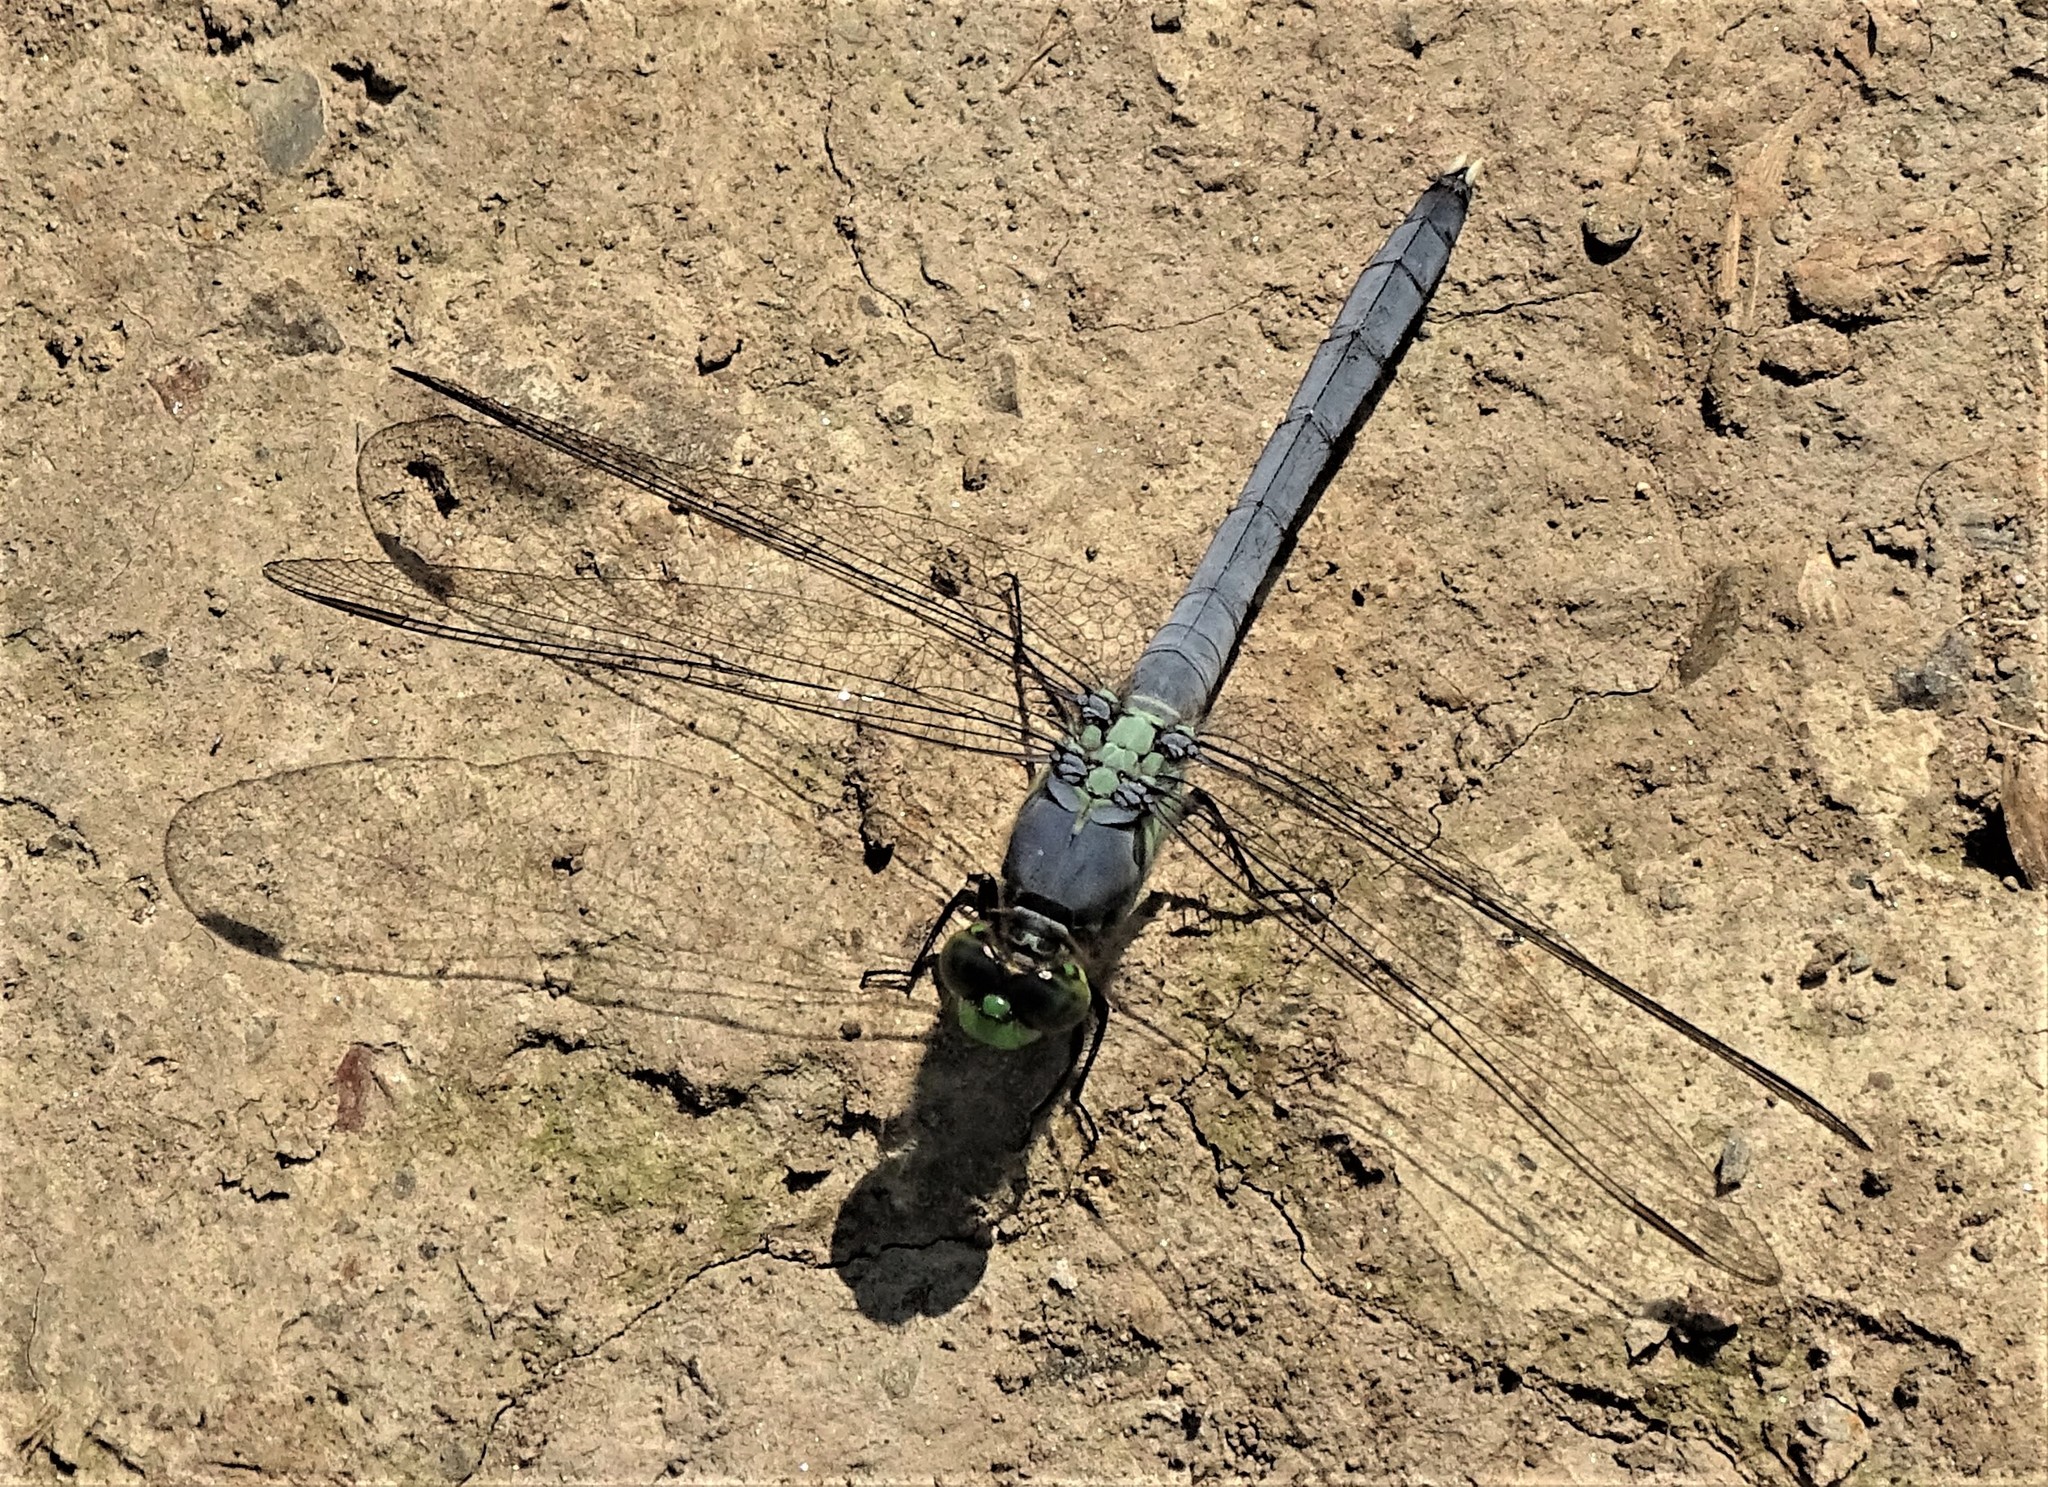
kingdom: Animalia
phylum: Arthropoda
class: Insecta
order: Odonata
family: Libellulidae
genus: Erythemis
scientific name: Erythemis simplicicollis
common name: Eastern pondhawk
